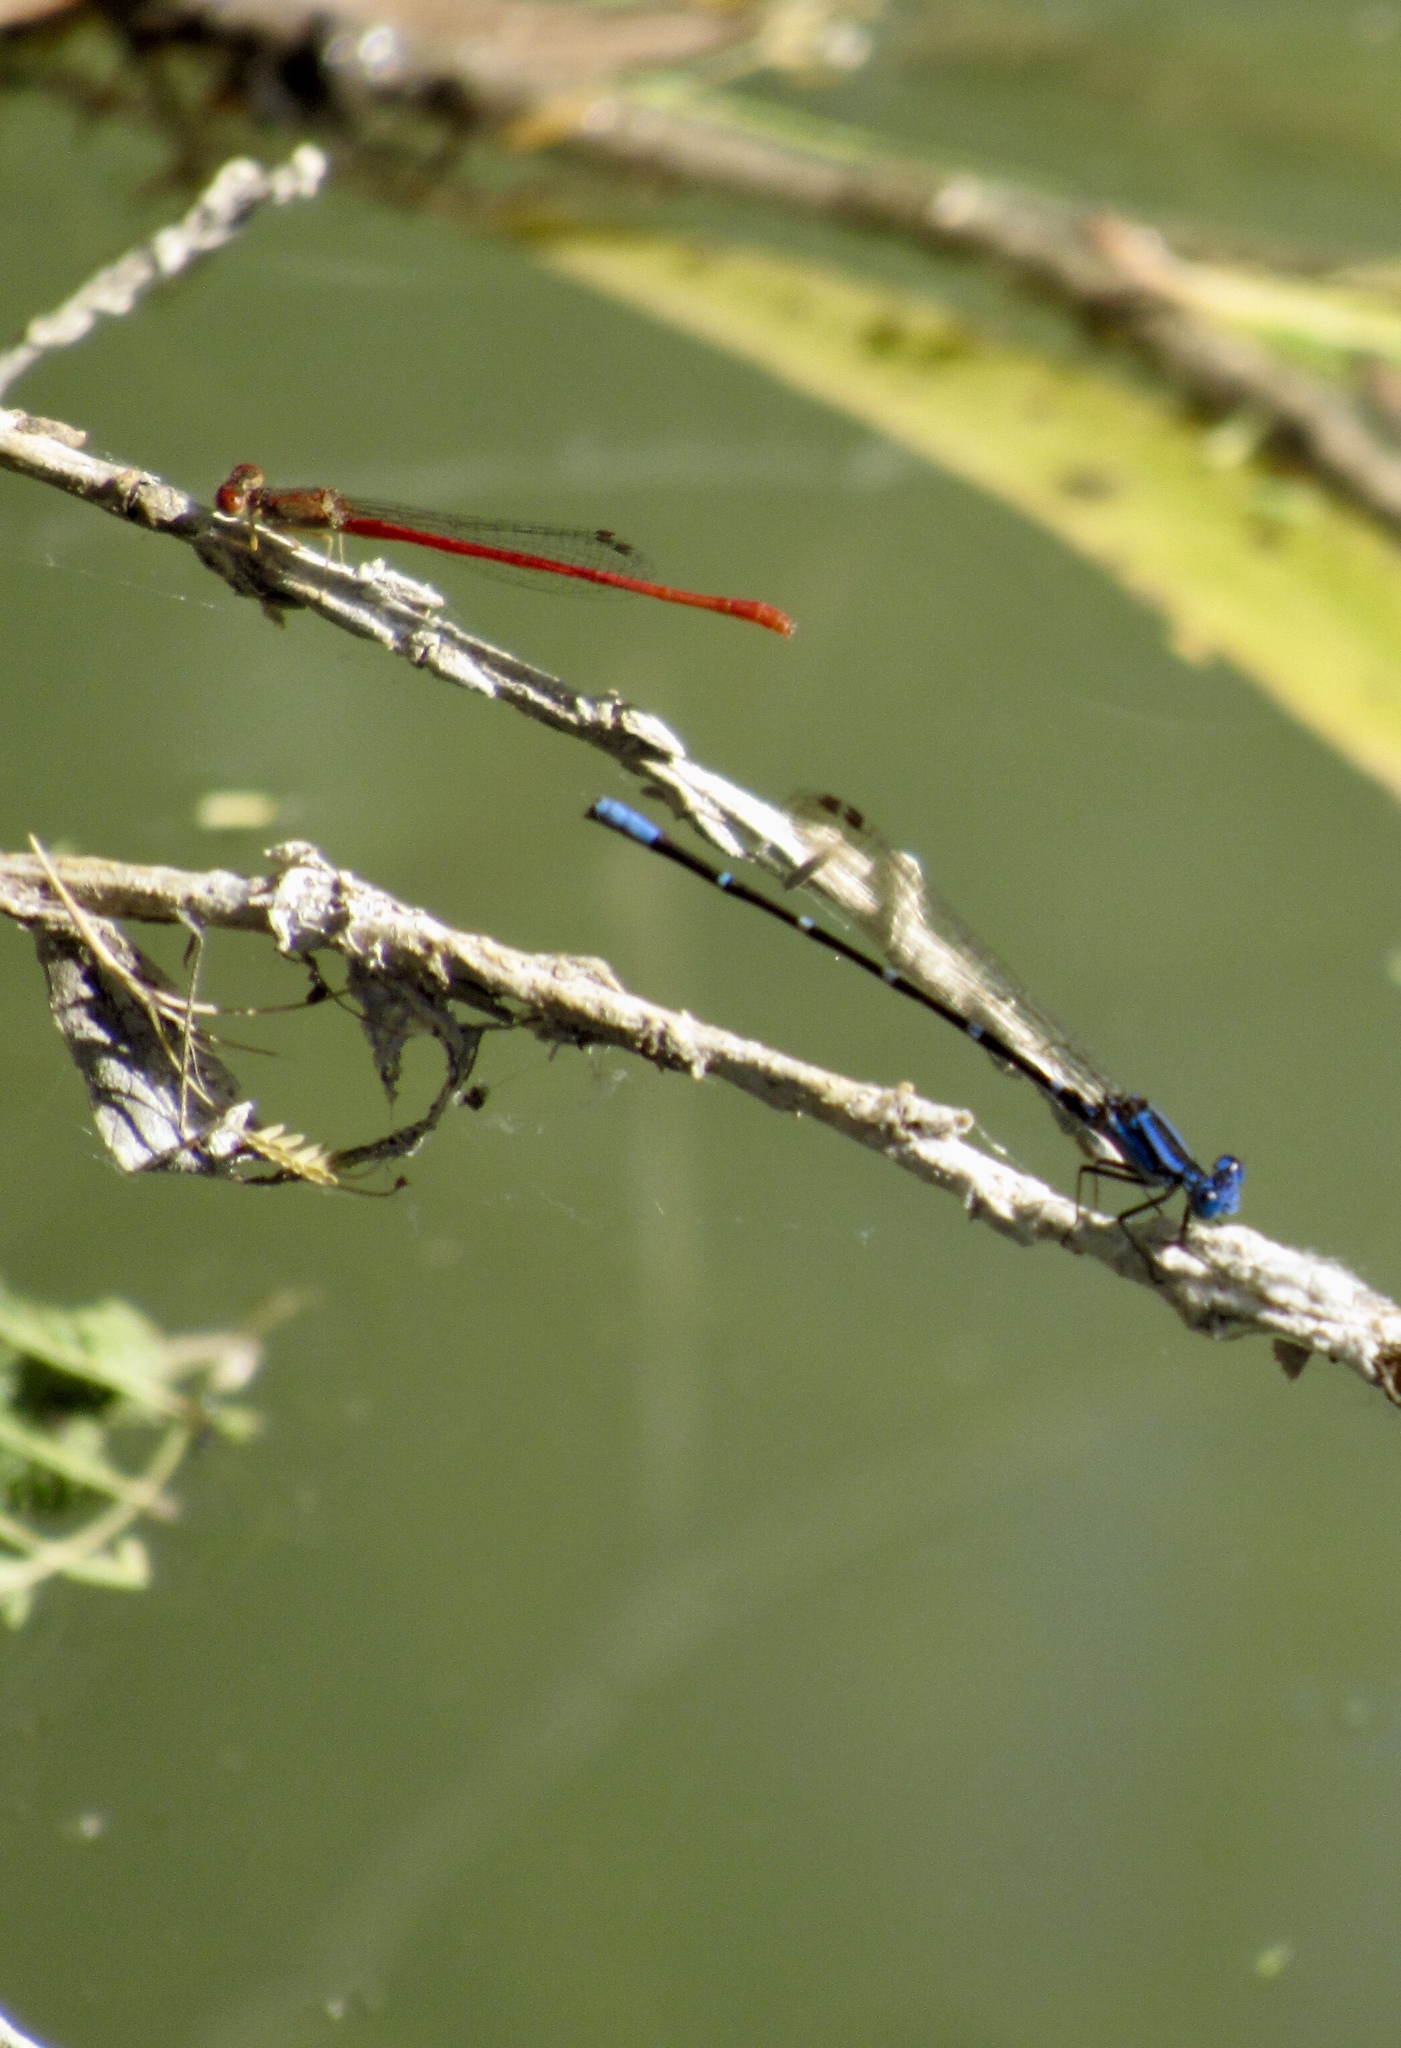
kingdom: Animalia
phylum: Arthropoda
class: Insecta
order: Odonata
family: Coenagrionidae
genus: Telebasis
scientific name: Telebasis salva
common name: Desert firetail
